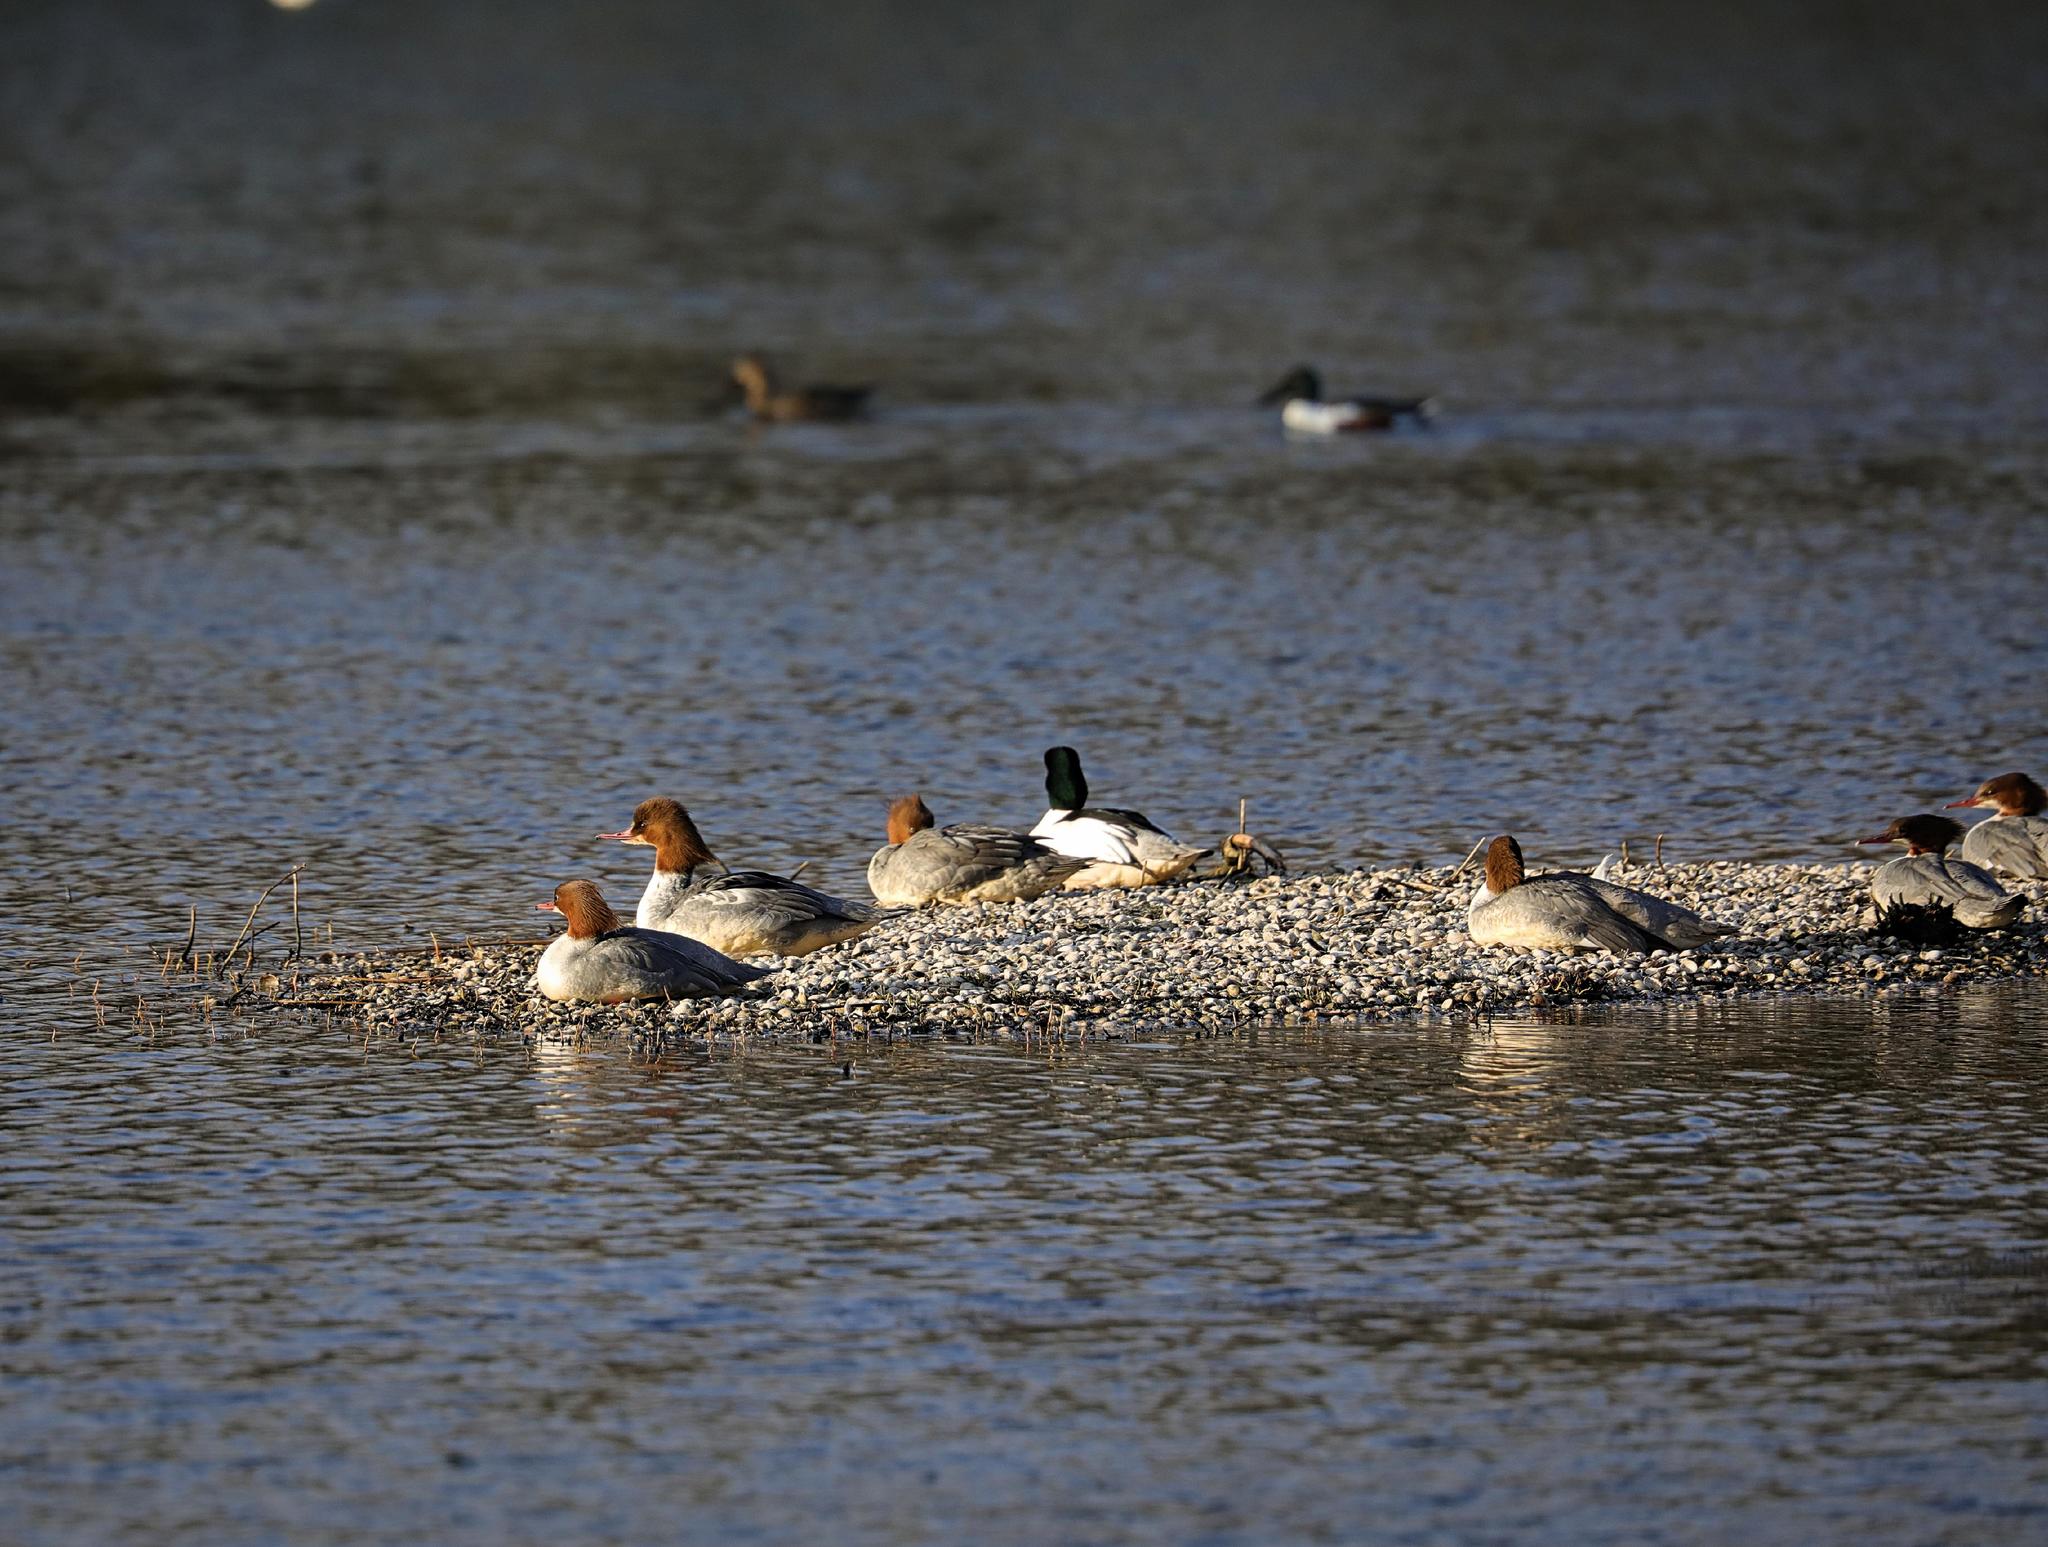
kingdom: Animalia
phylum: Chordata
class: Aves
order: Anseriformes
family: Anatidae
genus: Mergus
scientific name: Mergus merganser
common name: Common merganser
